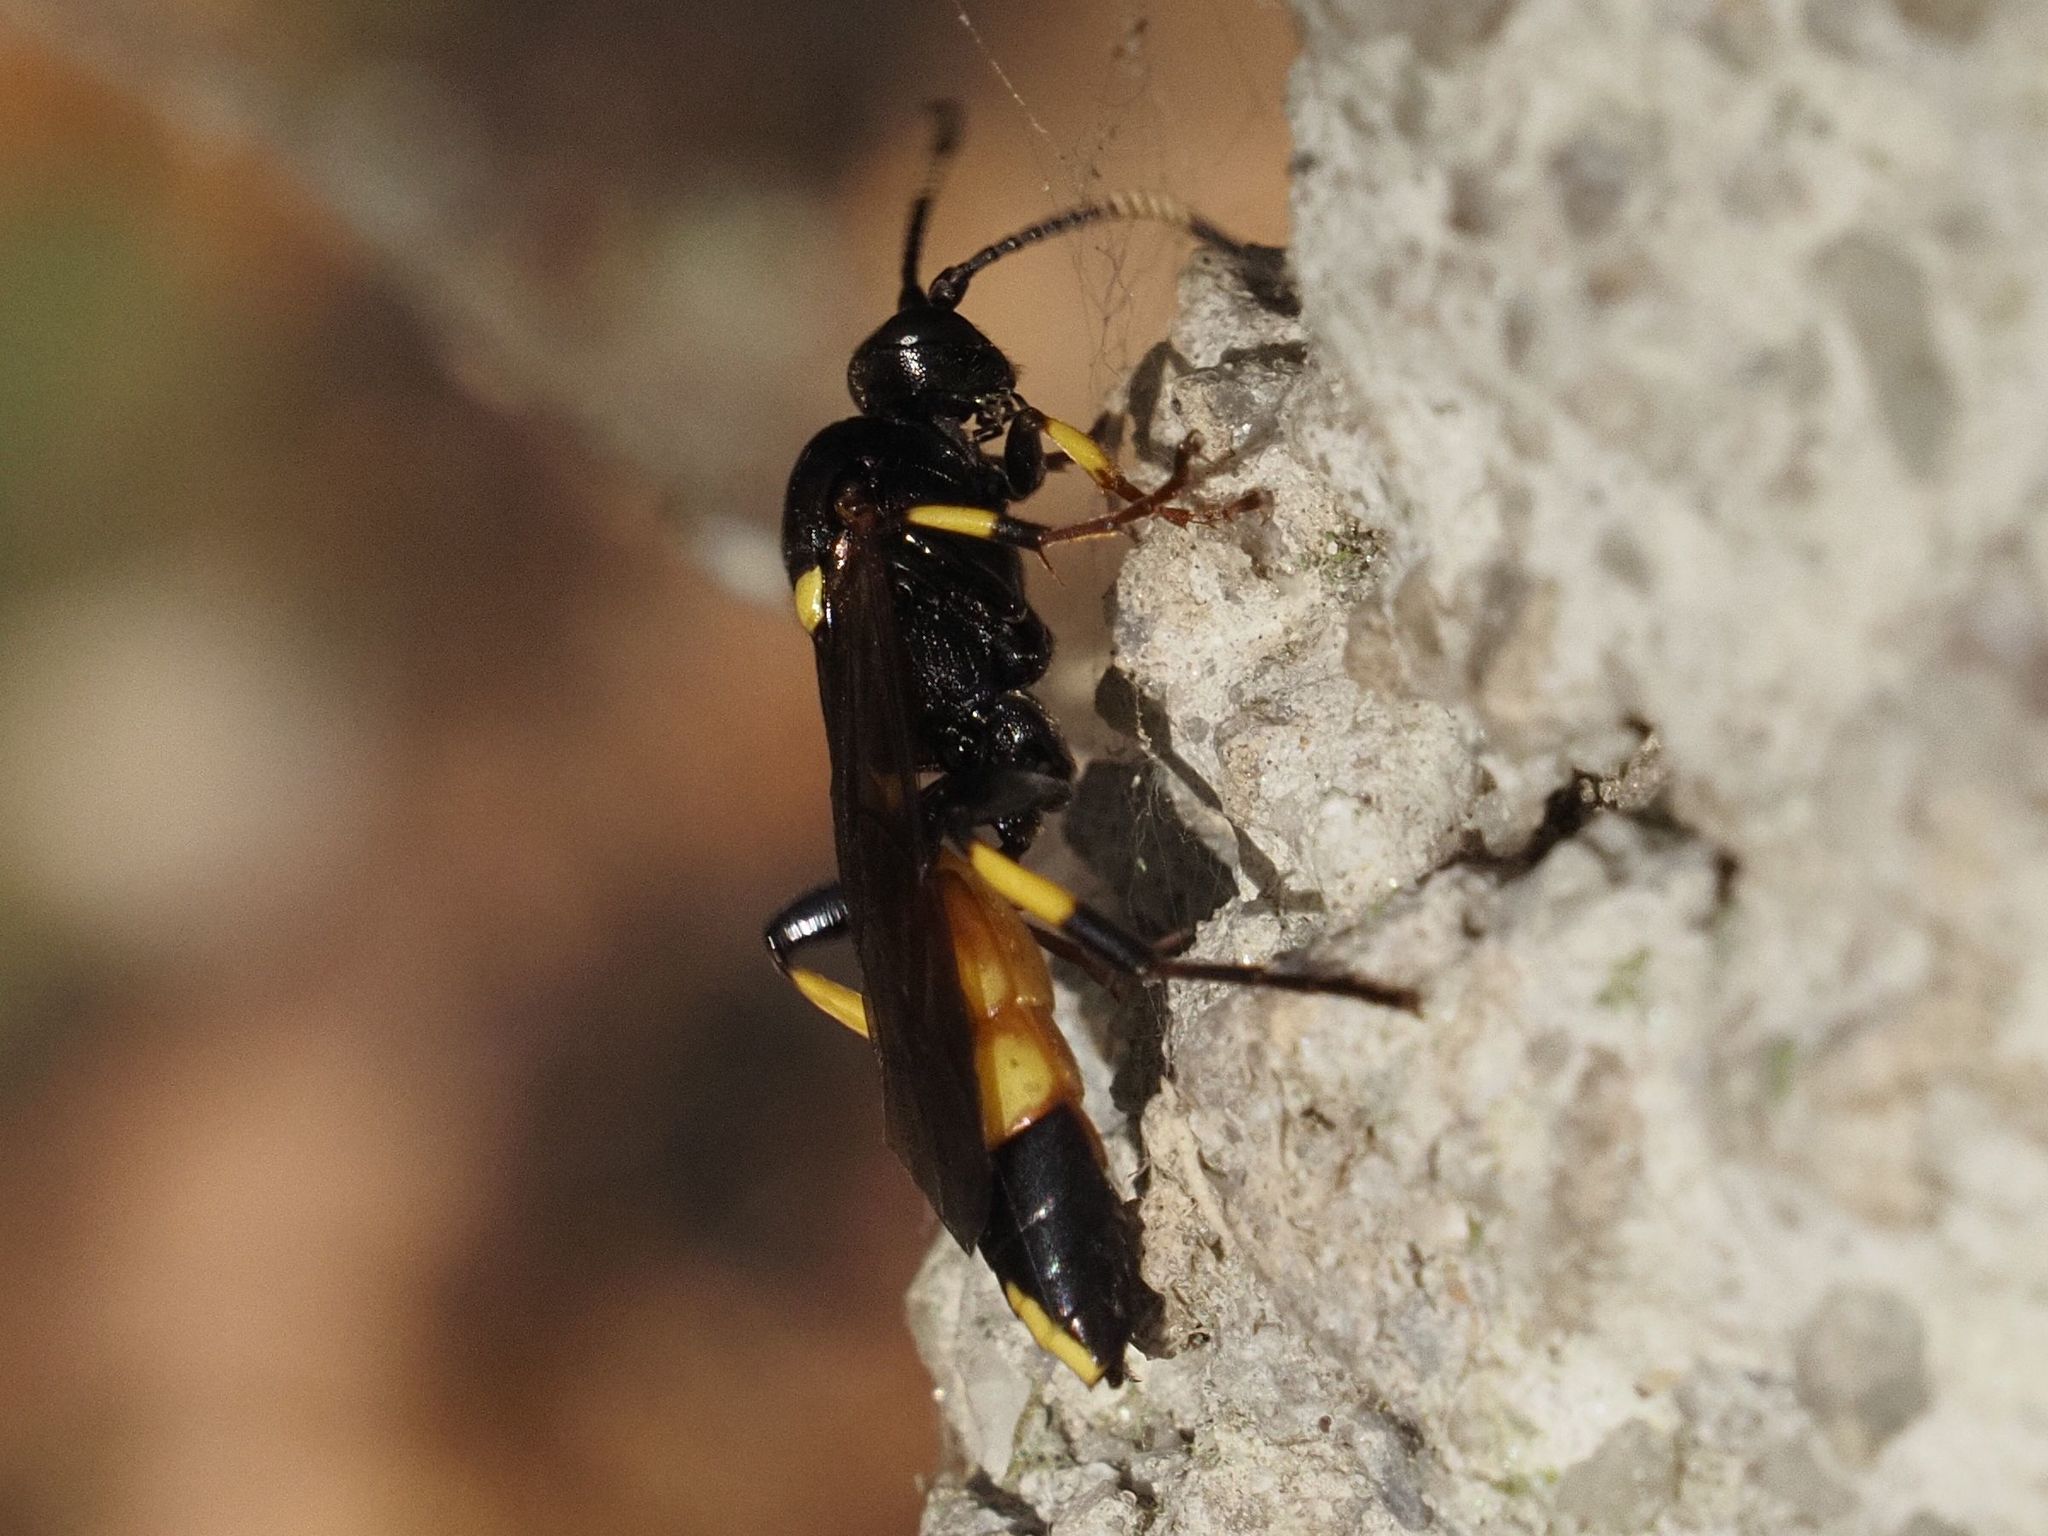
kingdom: Animalia
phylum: Arthropoda
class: Insecta
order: Hymenoptera
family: Ichneumonidae
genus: Ichneumon
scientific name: Ichneumon stramentor
